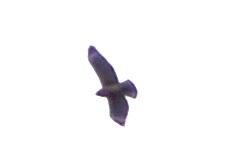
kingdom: Animalia
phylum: Chordata
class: Aves
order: Accipitriformes
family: Accipitridae
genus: Buteo
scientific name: Buteo lineatus
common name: Red-shouldered hawk
